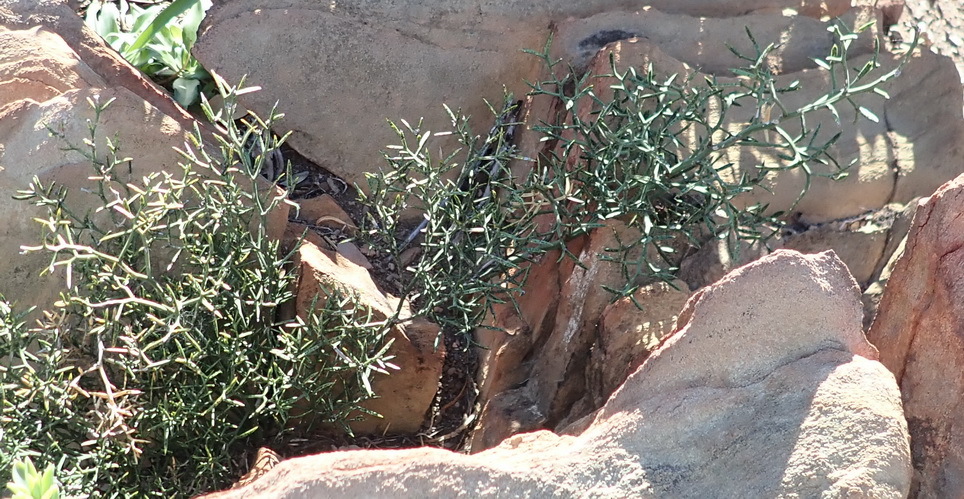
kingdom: Plantae
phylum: Tracheophyta
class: Liliopsida
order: Asparagales
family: Asparagaceae
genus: Asparagus
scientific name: Asparagus striatus
